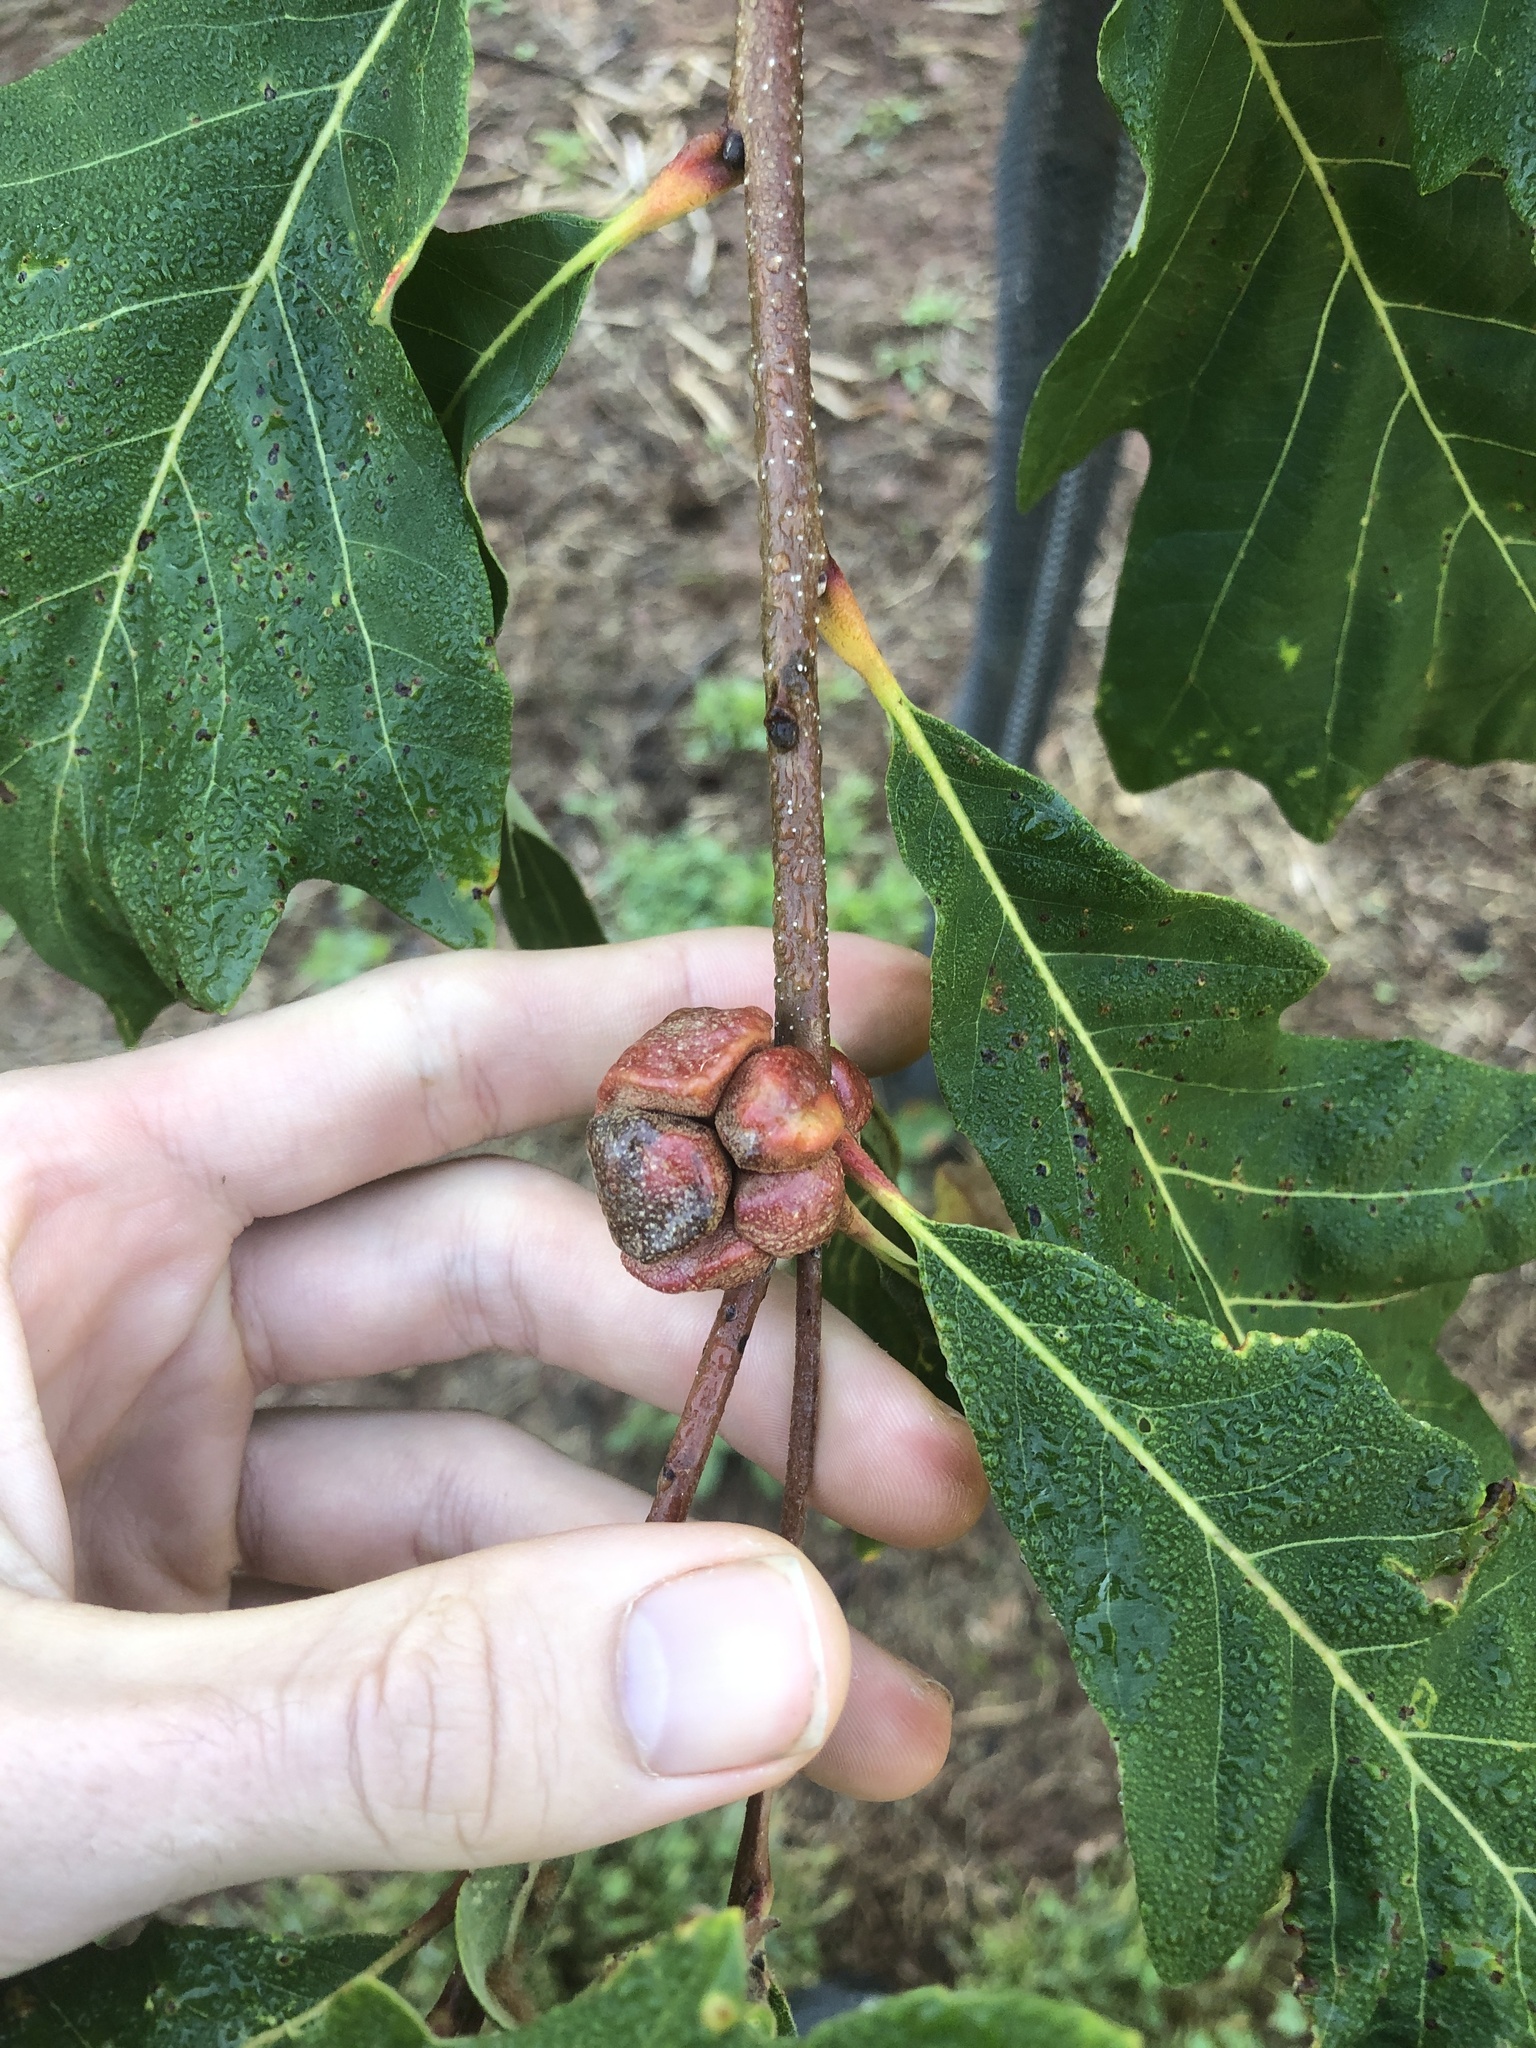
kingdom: Animalia
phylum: Arthropoda
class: Insecta
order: Hymenoptera
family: Cynipidae
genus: Andricus
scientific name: Andricus
